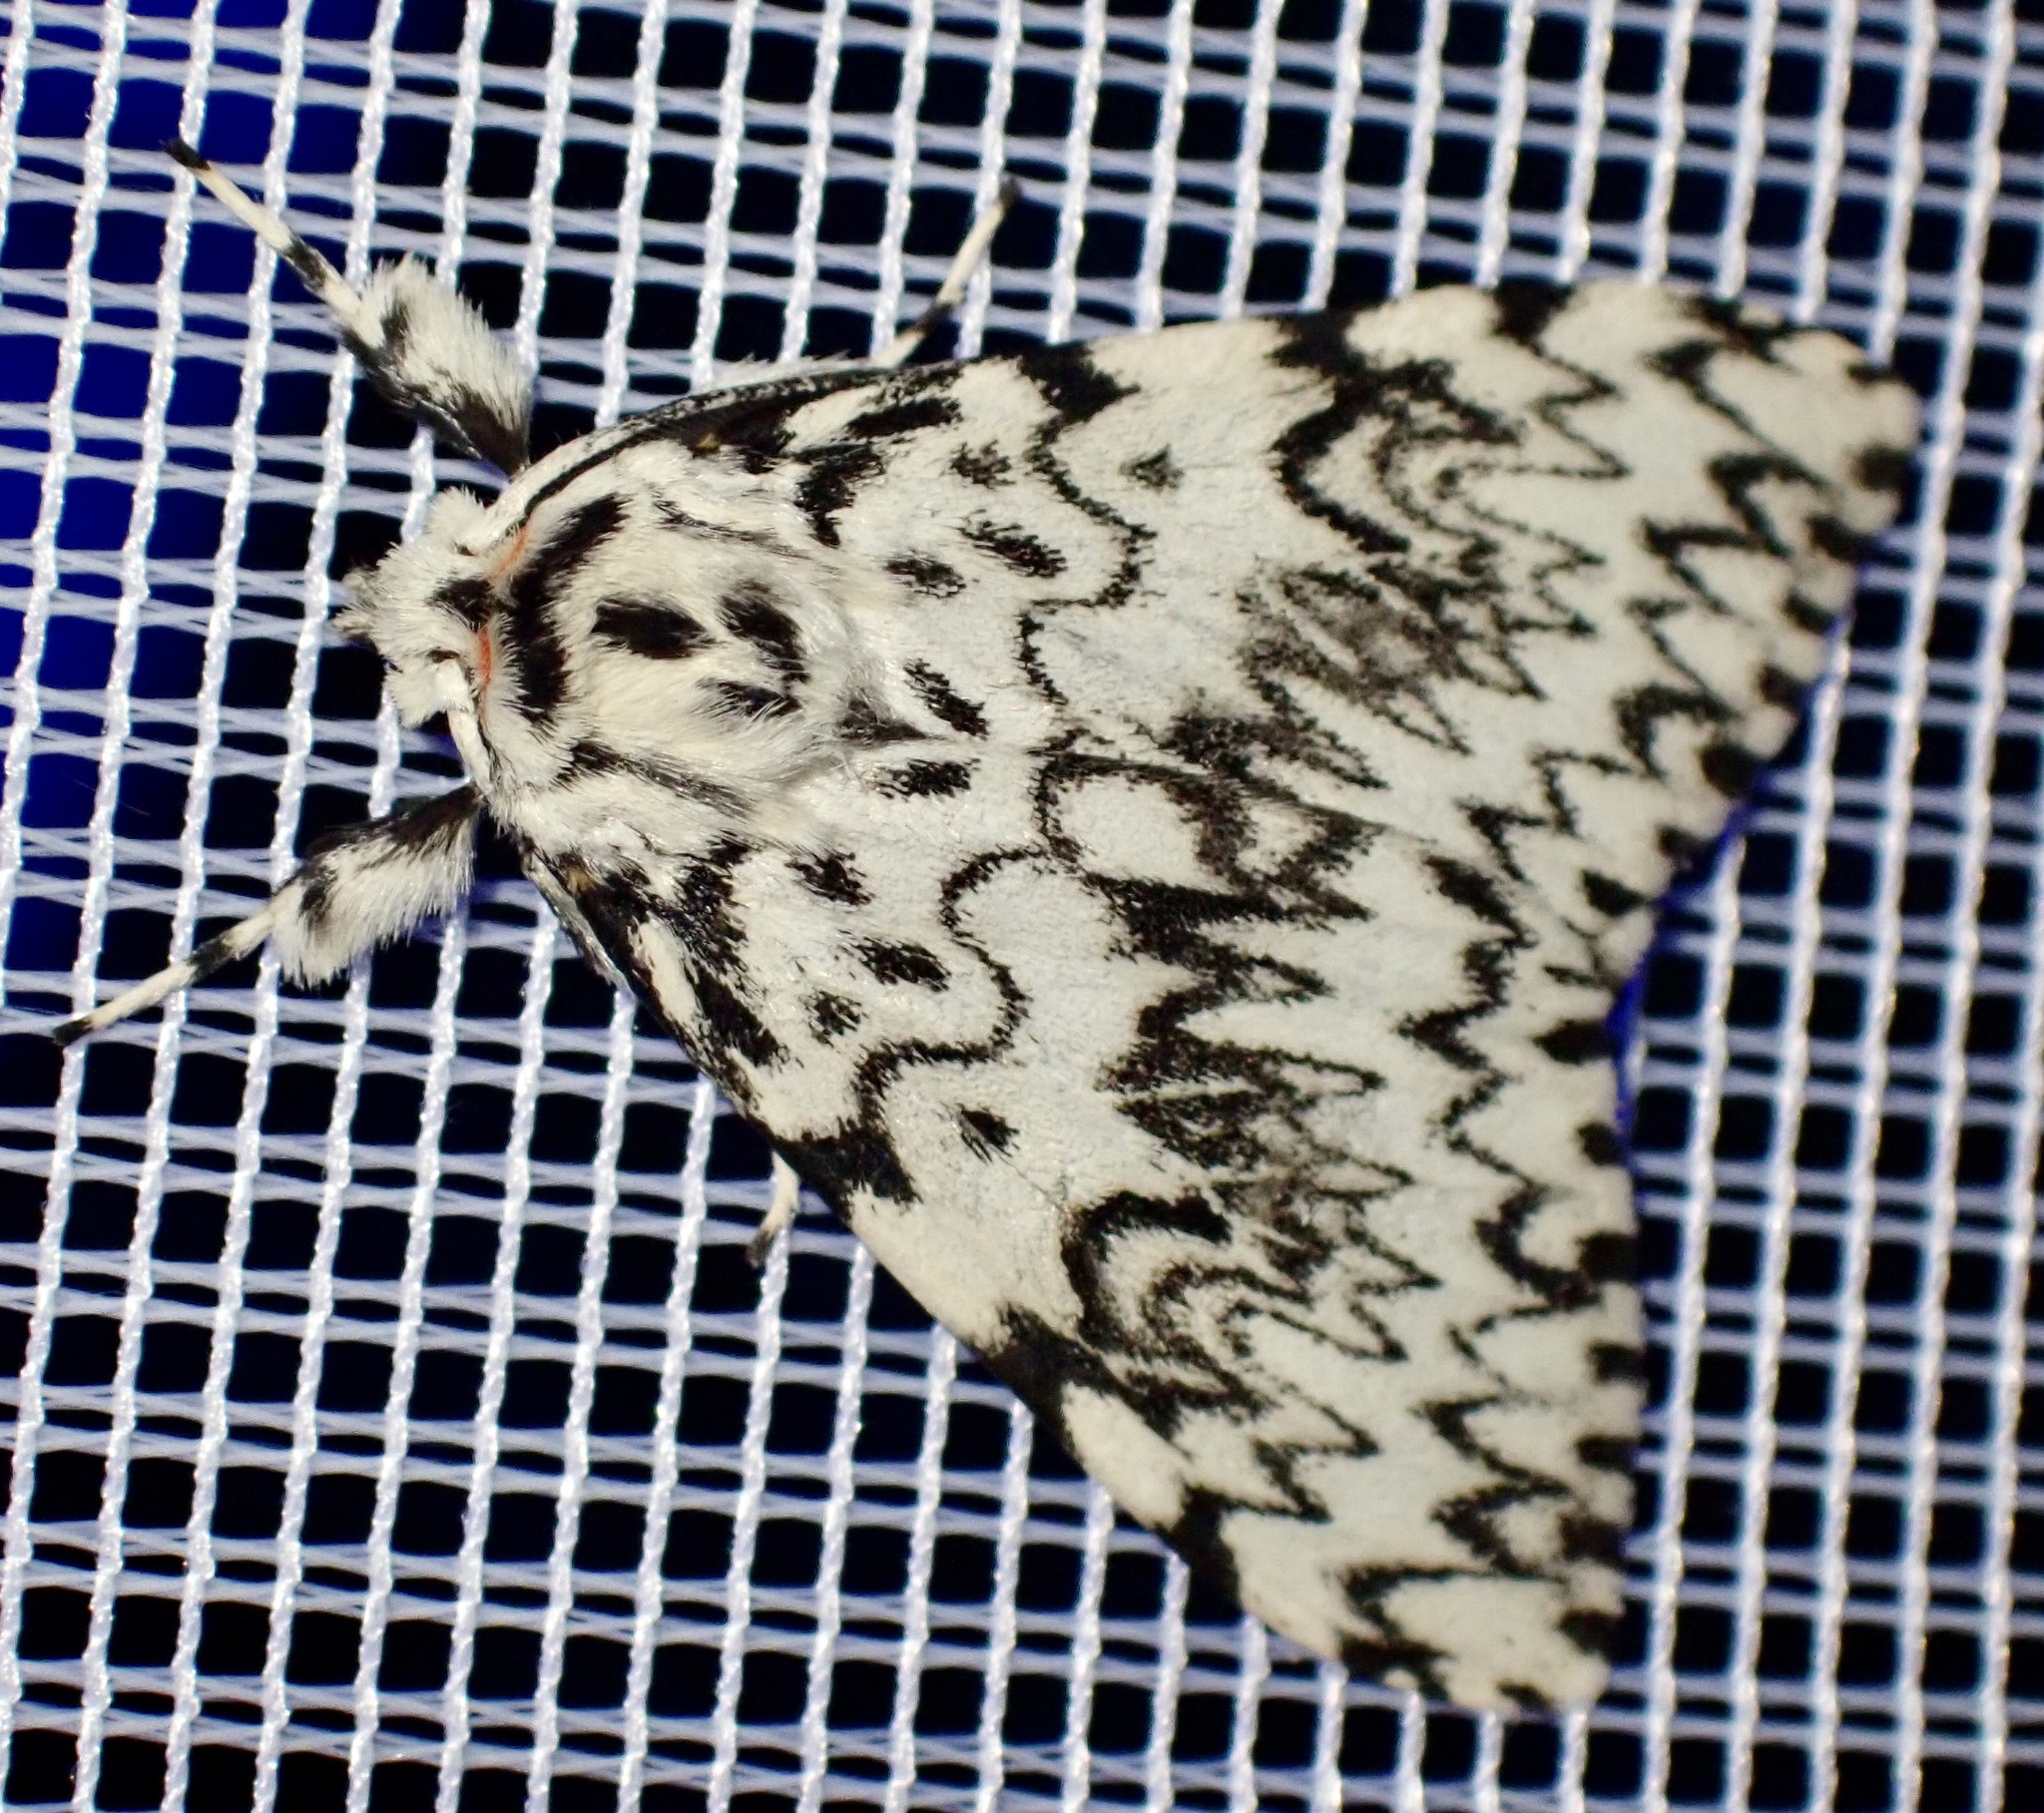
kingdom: Animalia
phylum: Arthropoda
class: Insecta
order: Lepidoptera
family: Erebidae
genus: Lymantria
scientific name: Lymantria monacha
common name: Black arches
